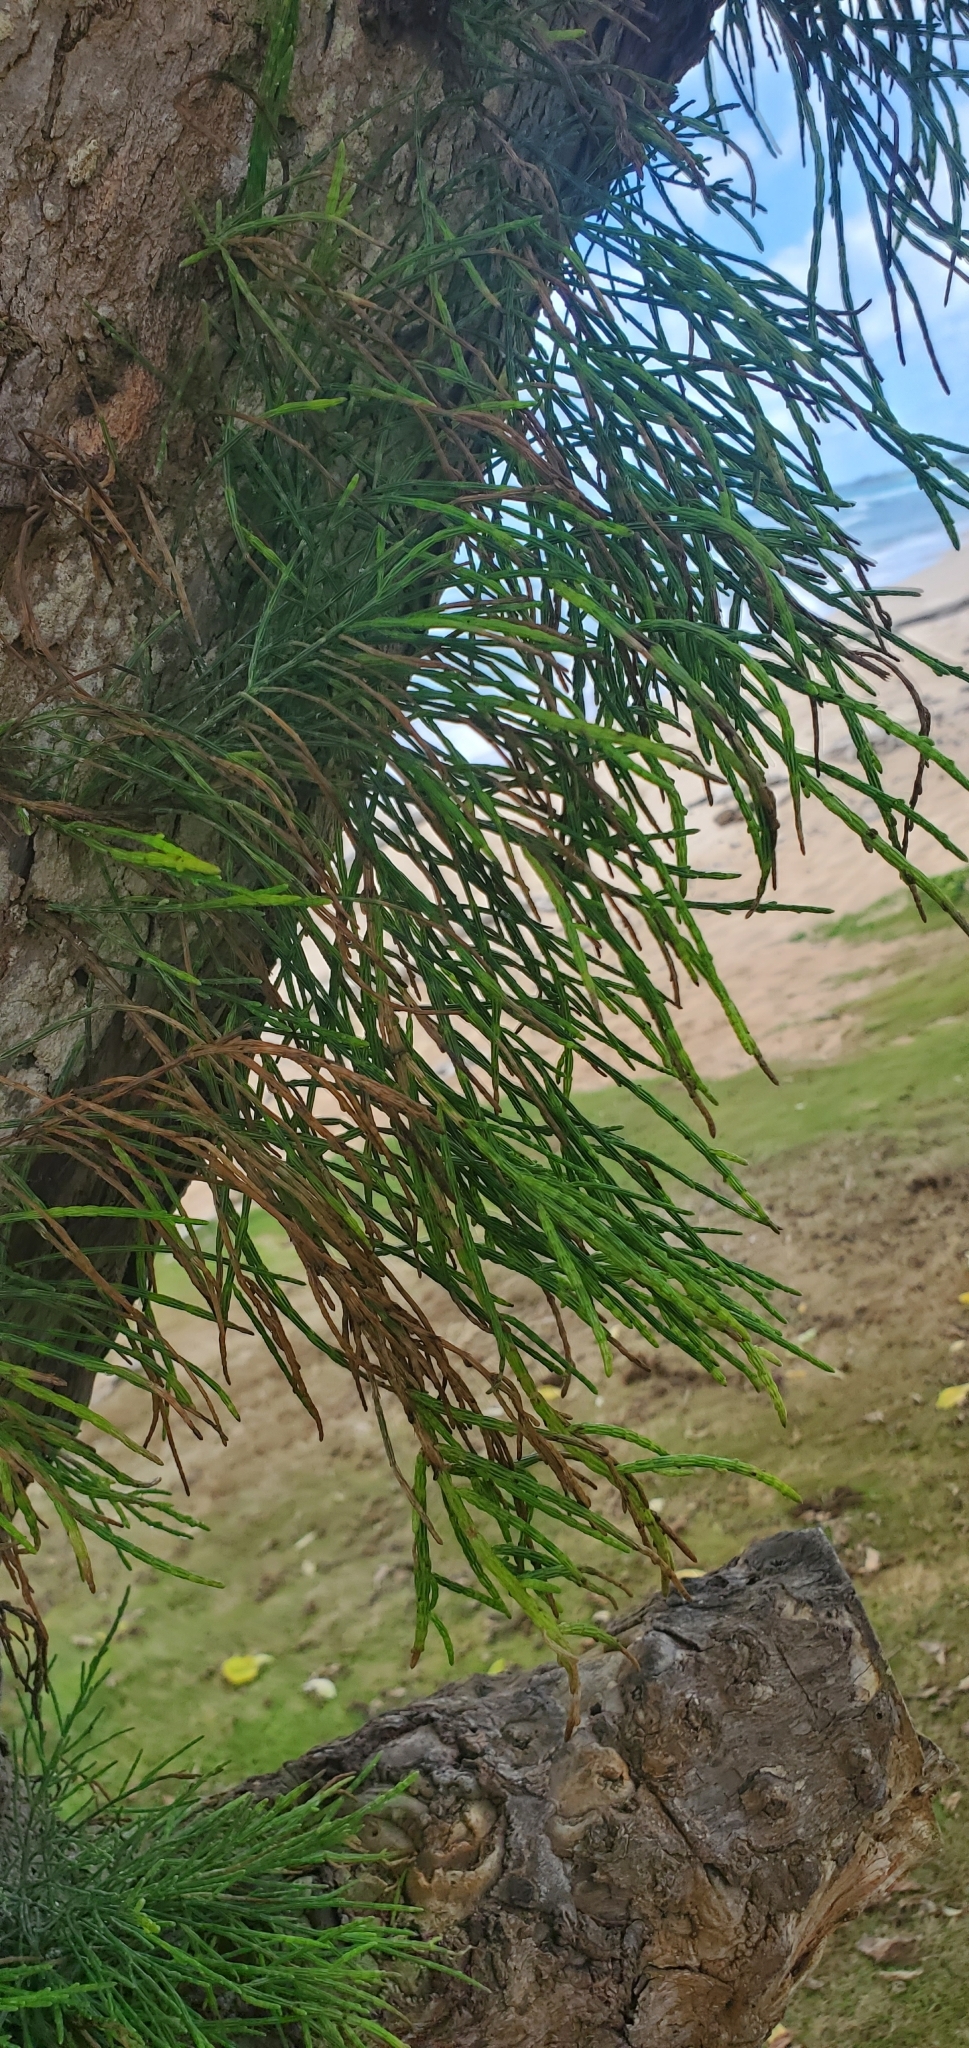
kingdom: Plantae
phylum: Tracheophyta
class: Magnoliopsida
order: Fagales
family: Casuarinaceae
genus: Casuarina
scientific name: Casuarina equisetifolia
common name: Beach sheoak
